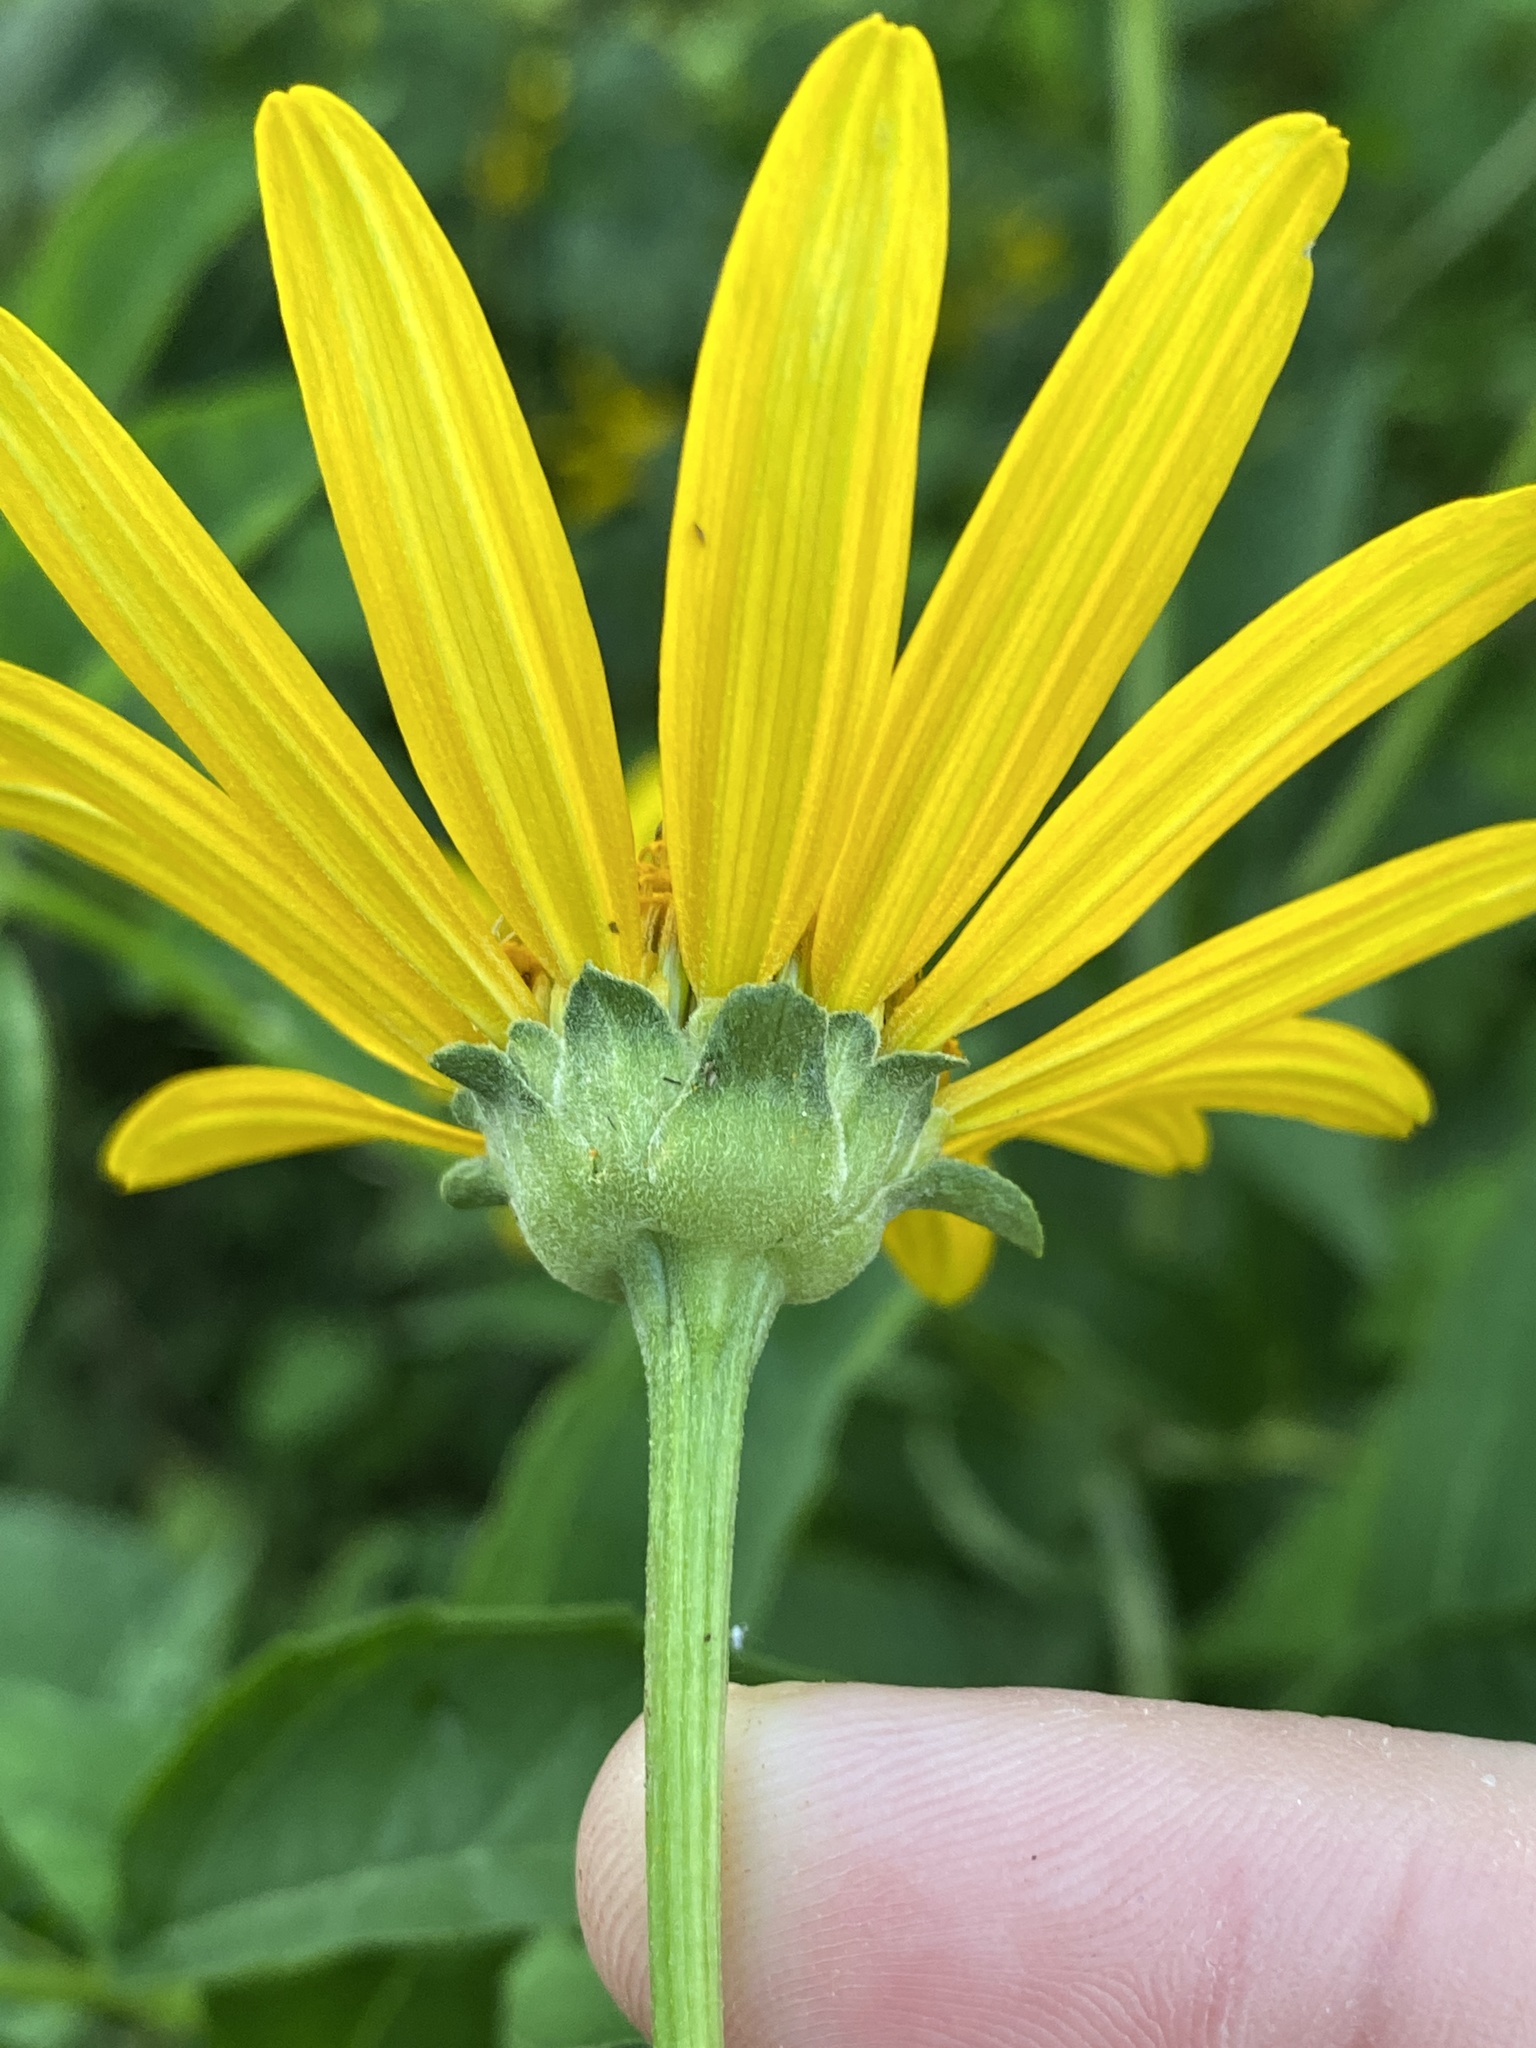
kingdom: Plantae
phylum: Tracheophyta
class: Magnoliopsida
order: Asterales
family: Asteraceae
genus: Heliopsis
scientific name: Heliopsis helianthoides
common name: False sunflower
